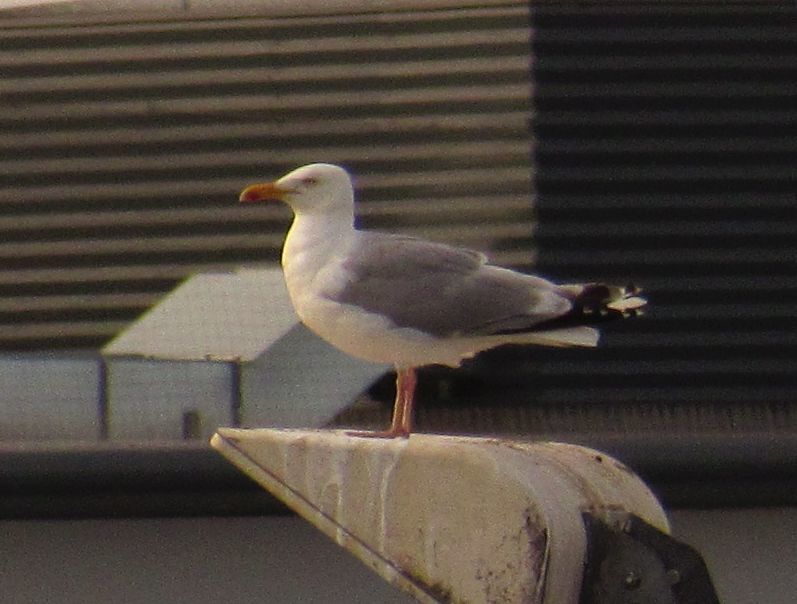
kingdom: Animalia
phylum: Chordata
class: Aves
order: Charadriiformes
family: Laridae
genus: Larus
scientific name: Larus argentatus
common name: Herring gull
